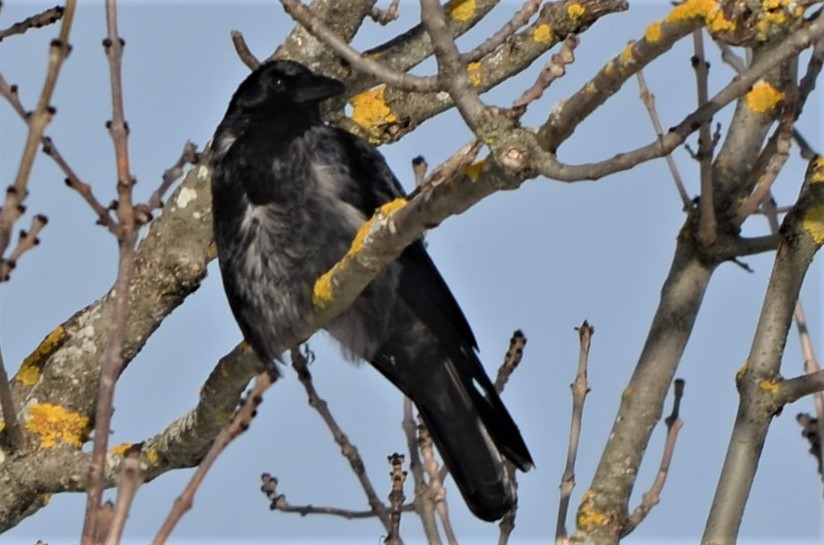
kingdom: Animalia
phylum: Chordata
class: Aves
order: Passeriformes
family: Corvidae
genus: Corvus
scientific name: Corvus
